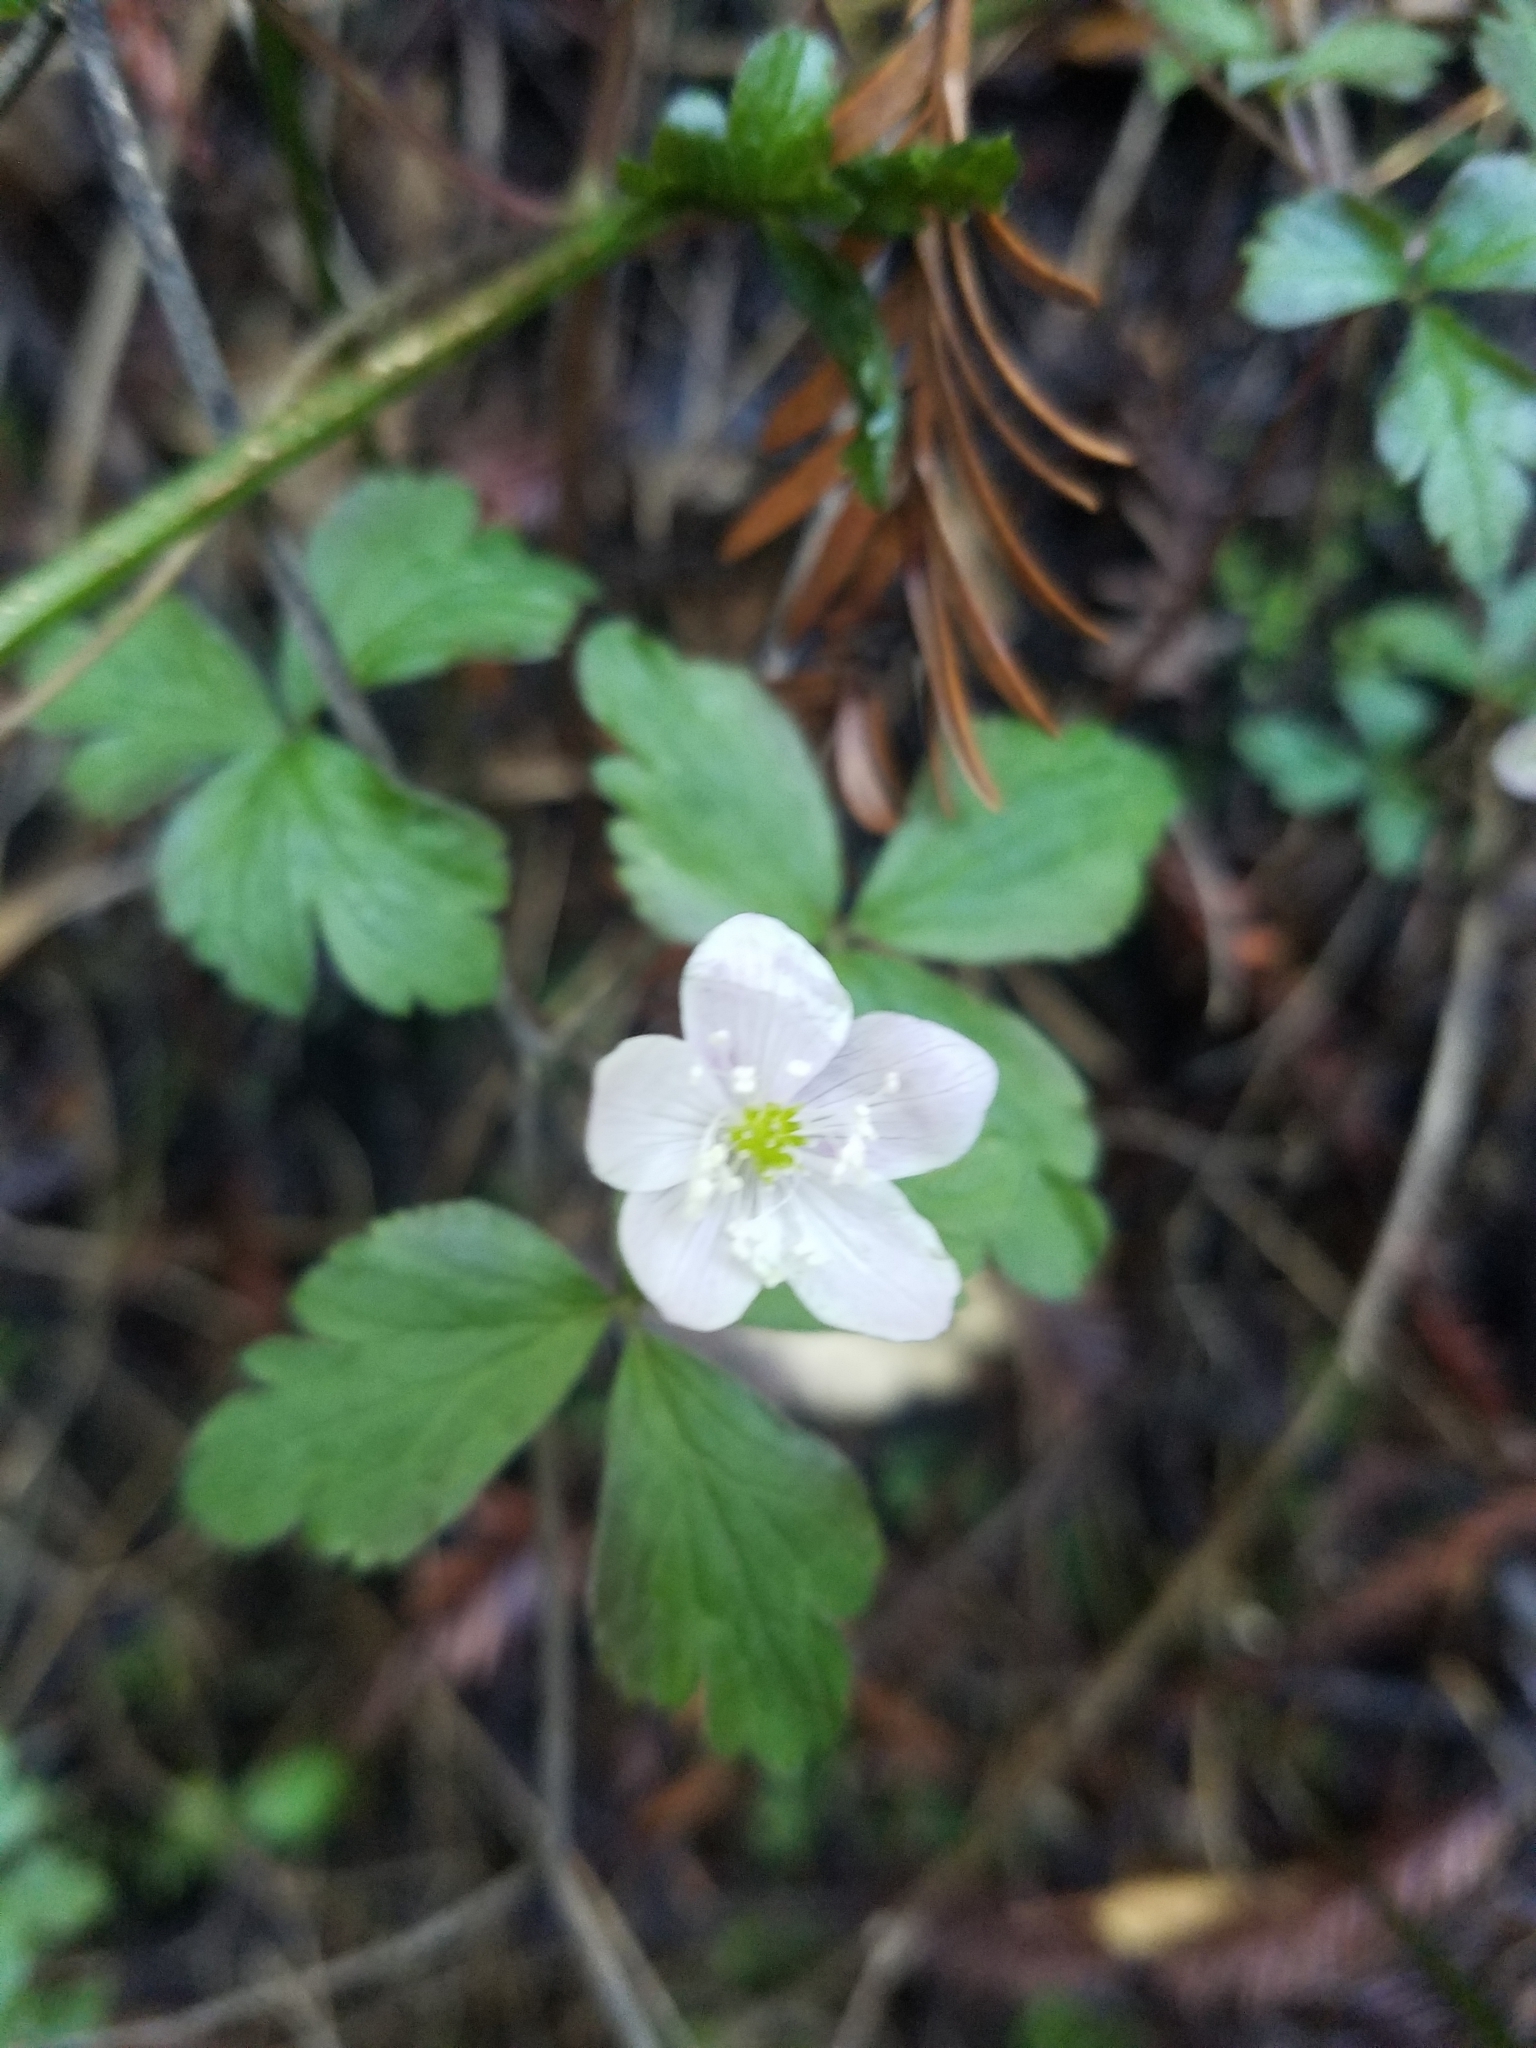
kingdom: Plantae
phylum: Tracheophyta
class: Magnoliopsida
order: Ranunculales
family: Ranunculaceae
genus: Anemone
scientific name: Anemone
